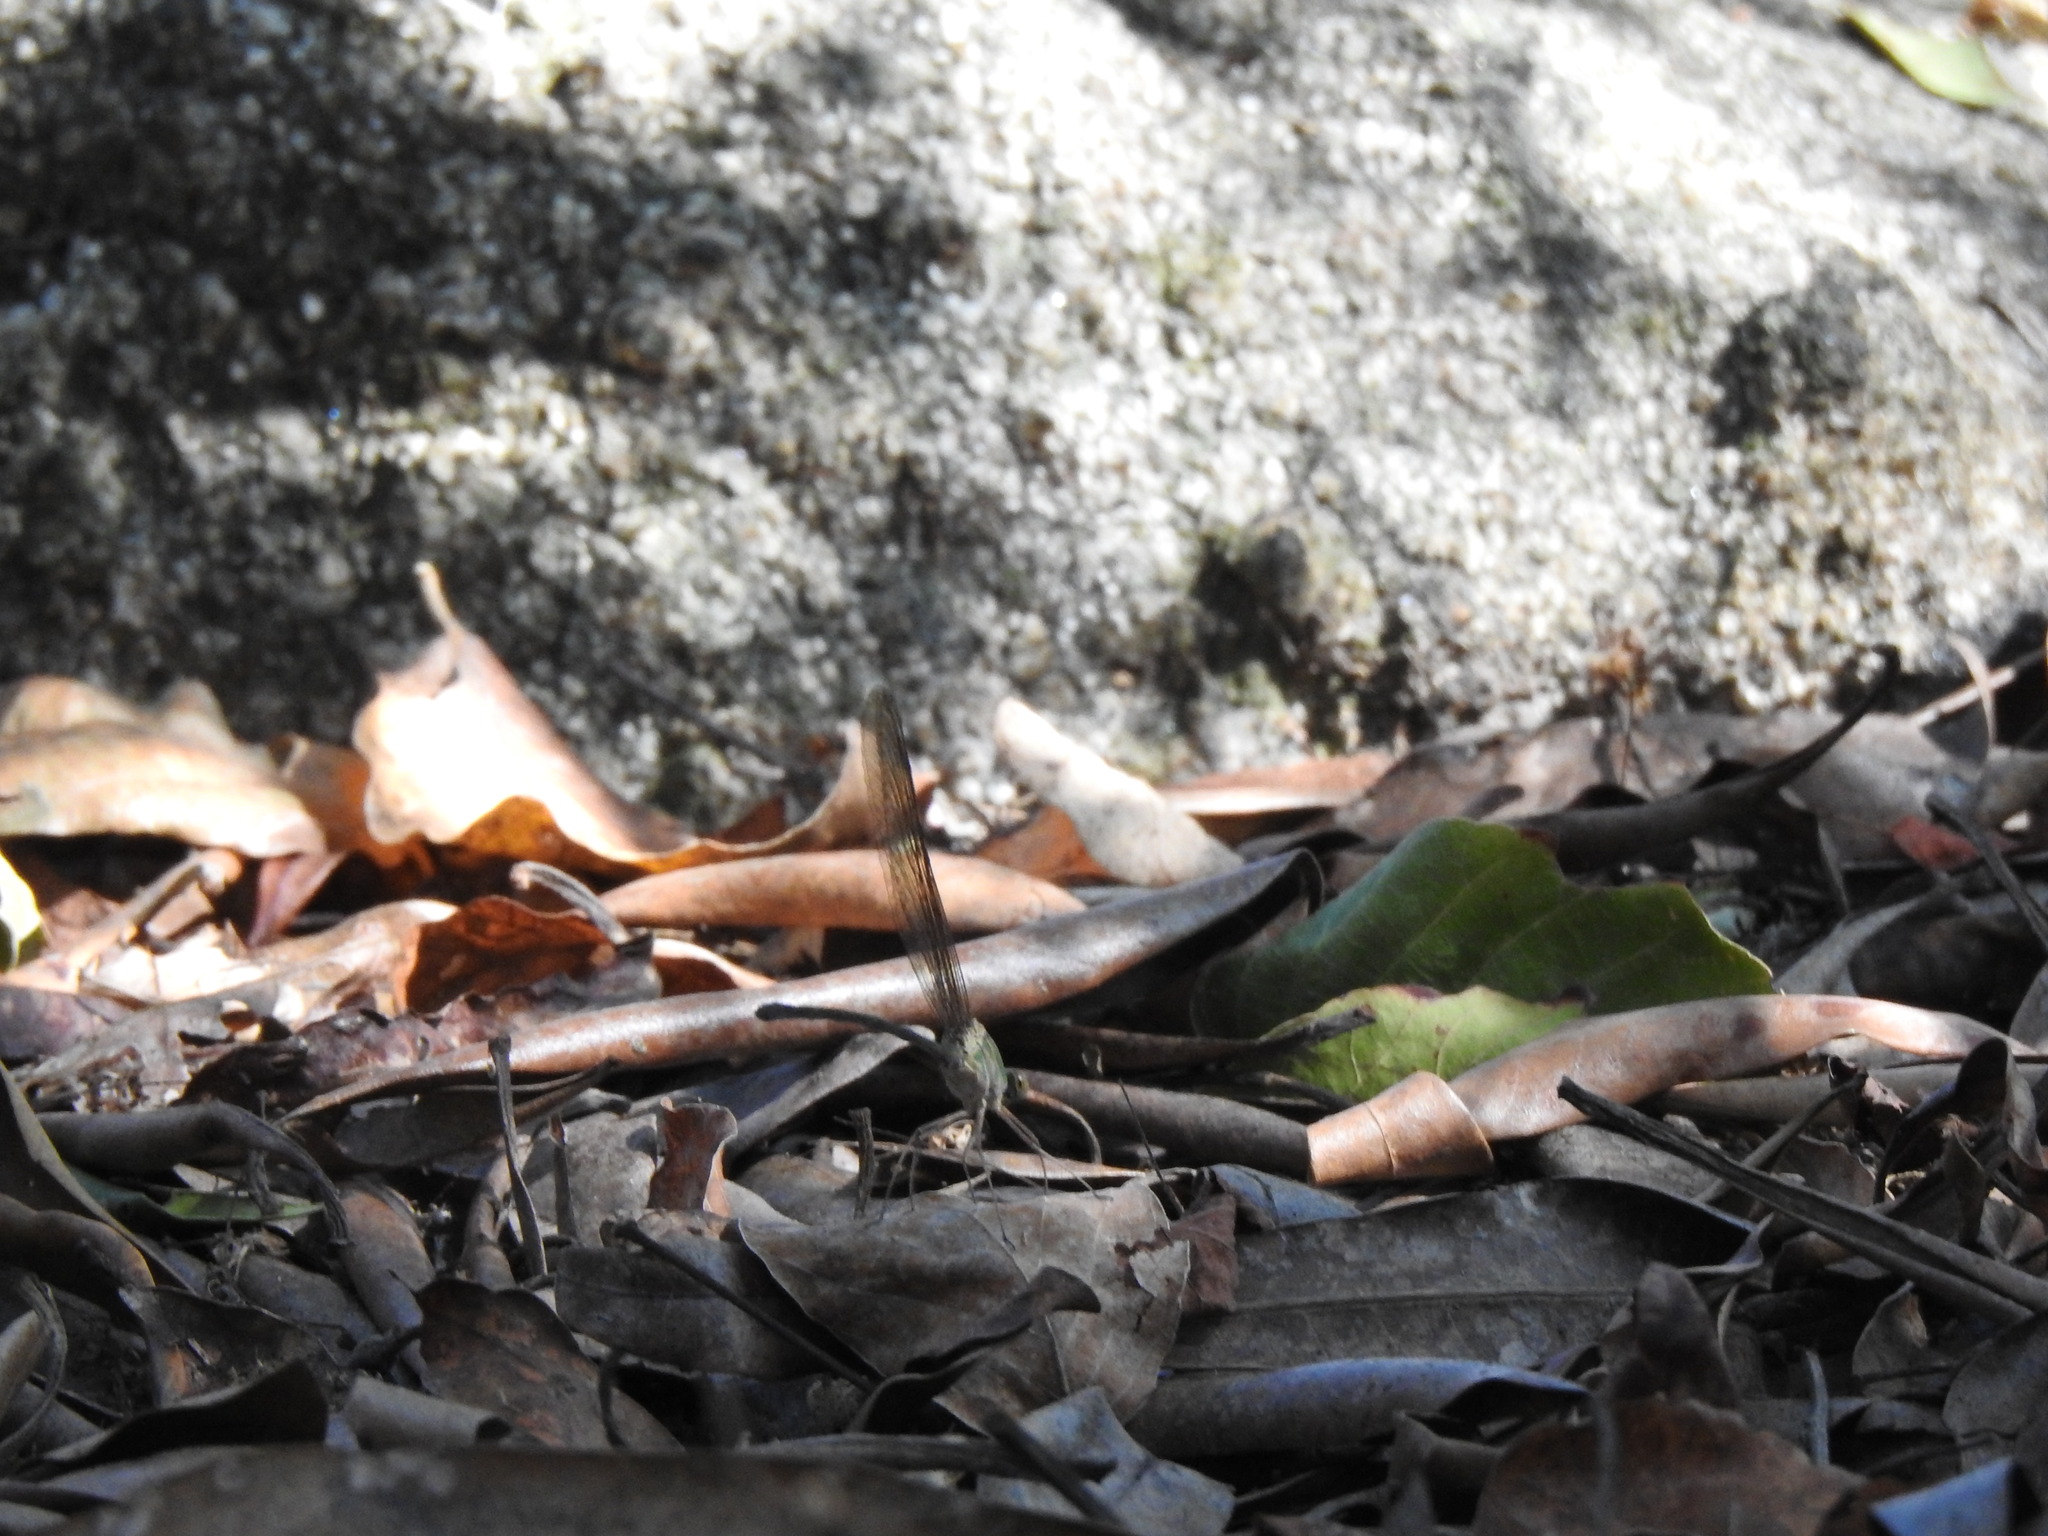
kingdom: Animalia
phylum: Arthropoda
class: Insecta
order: Odonata
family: Calopterygidae
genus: Phaon
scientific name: Phaon iridipennis
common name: Glistening demoiselle
